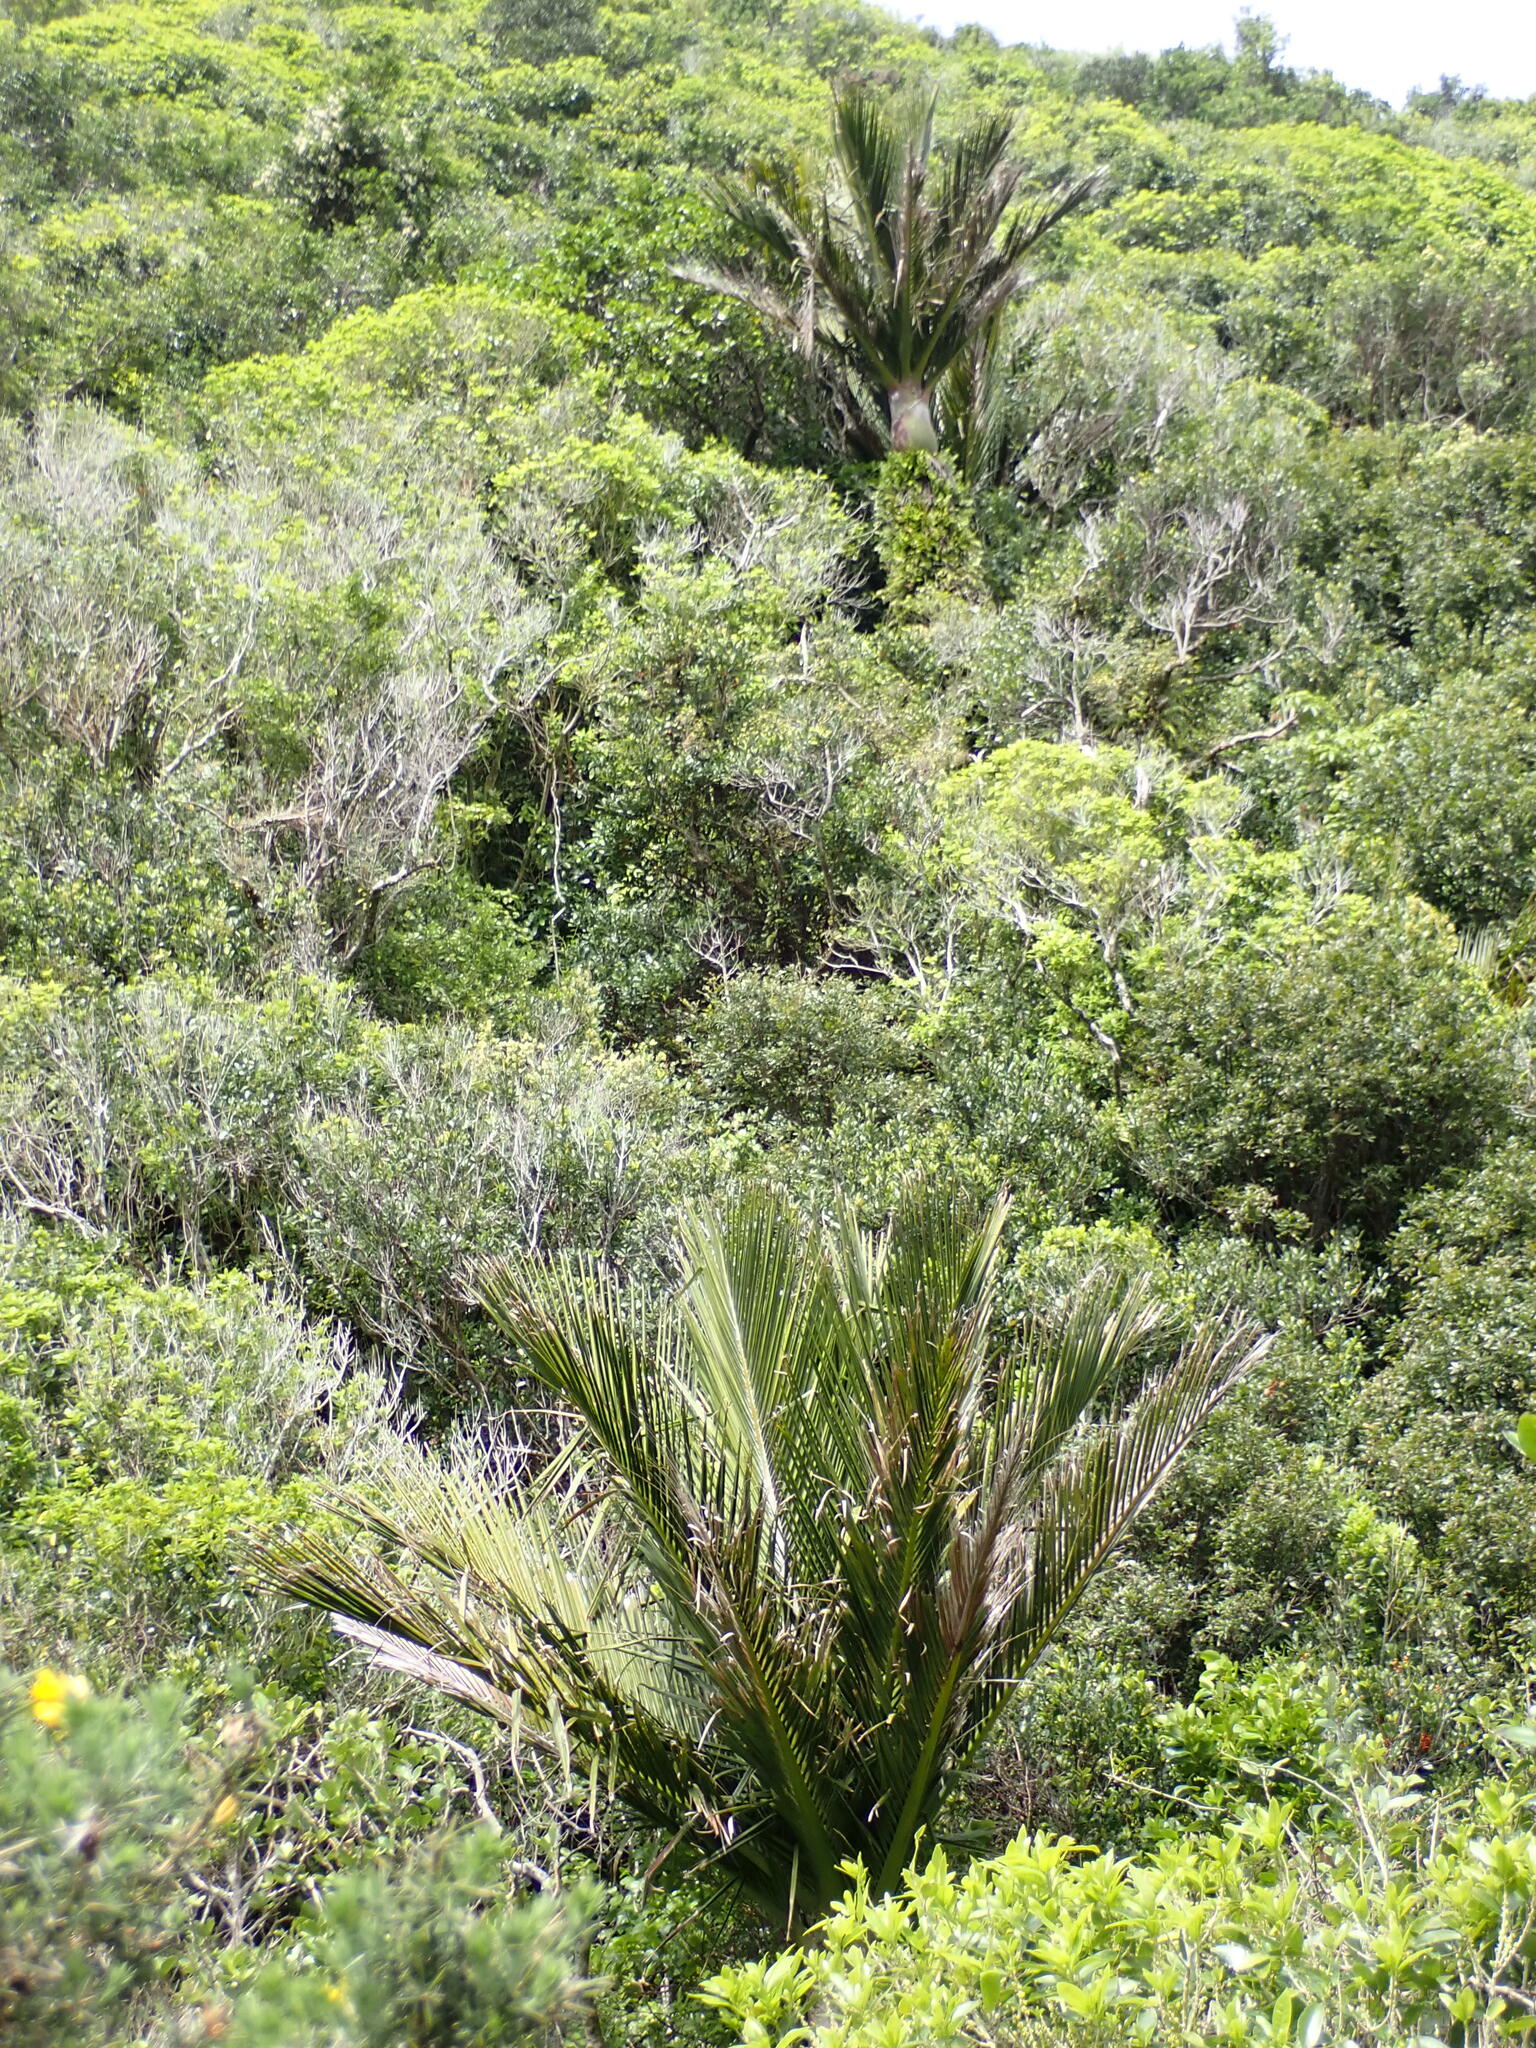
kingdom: Plantae
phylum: Tracheophyta
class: Liliopsida
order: Arecales
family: Arecaceae
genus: Rhopalostylis
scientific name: Rhopalostylis sapida
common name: Feather-duster palm
